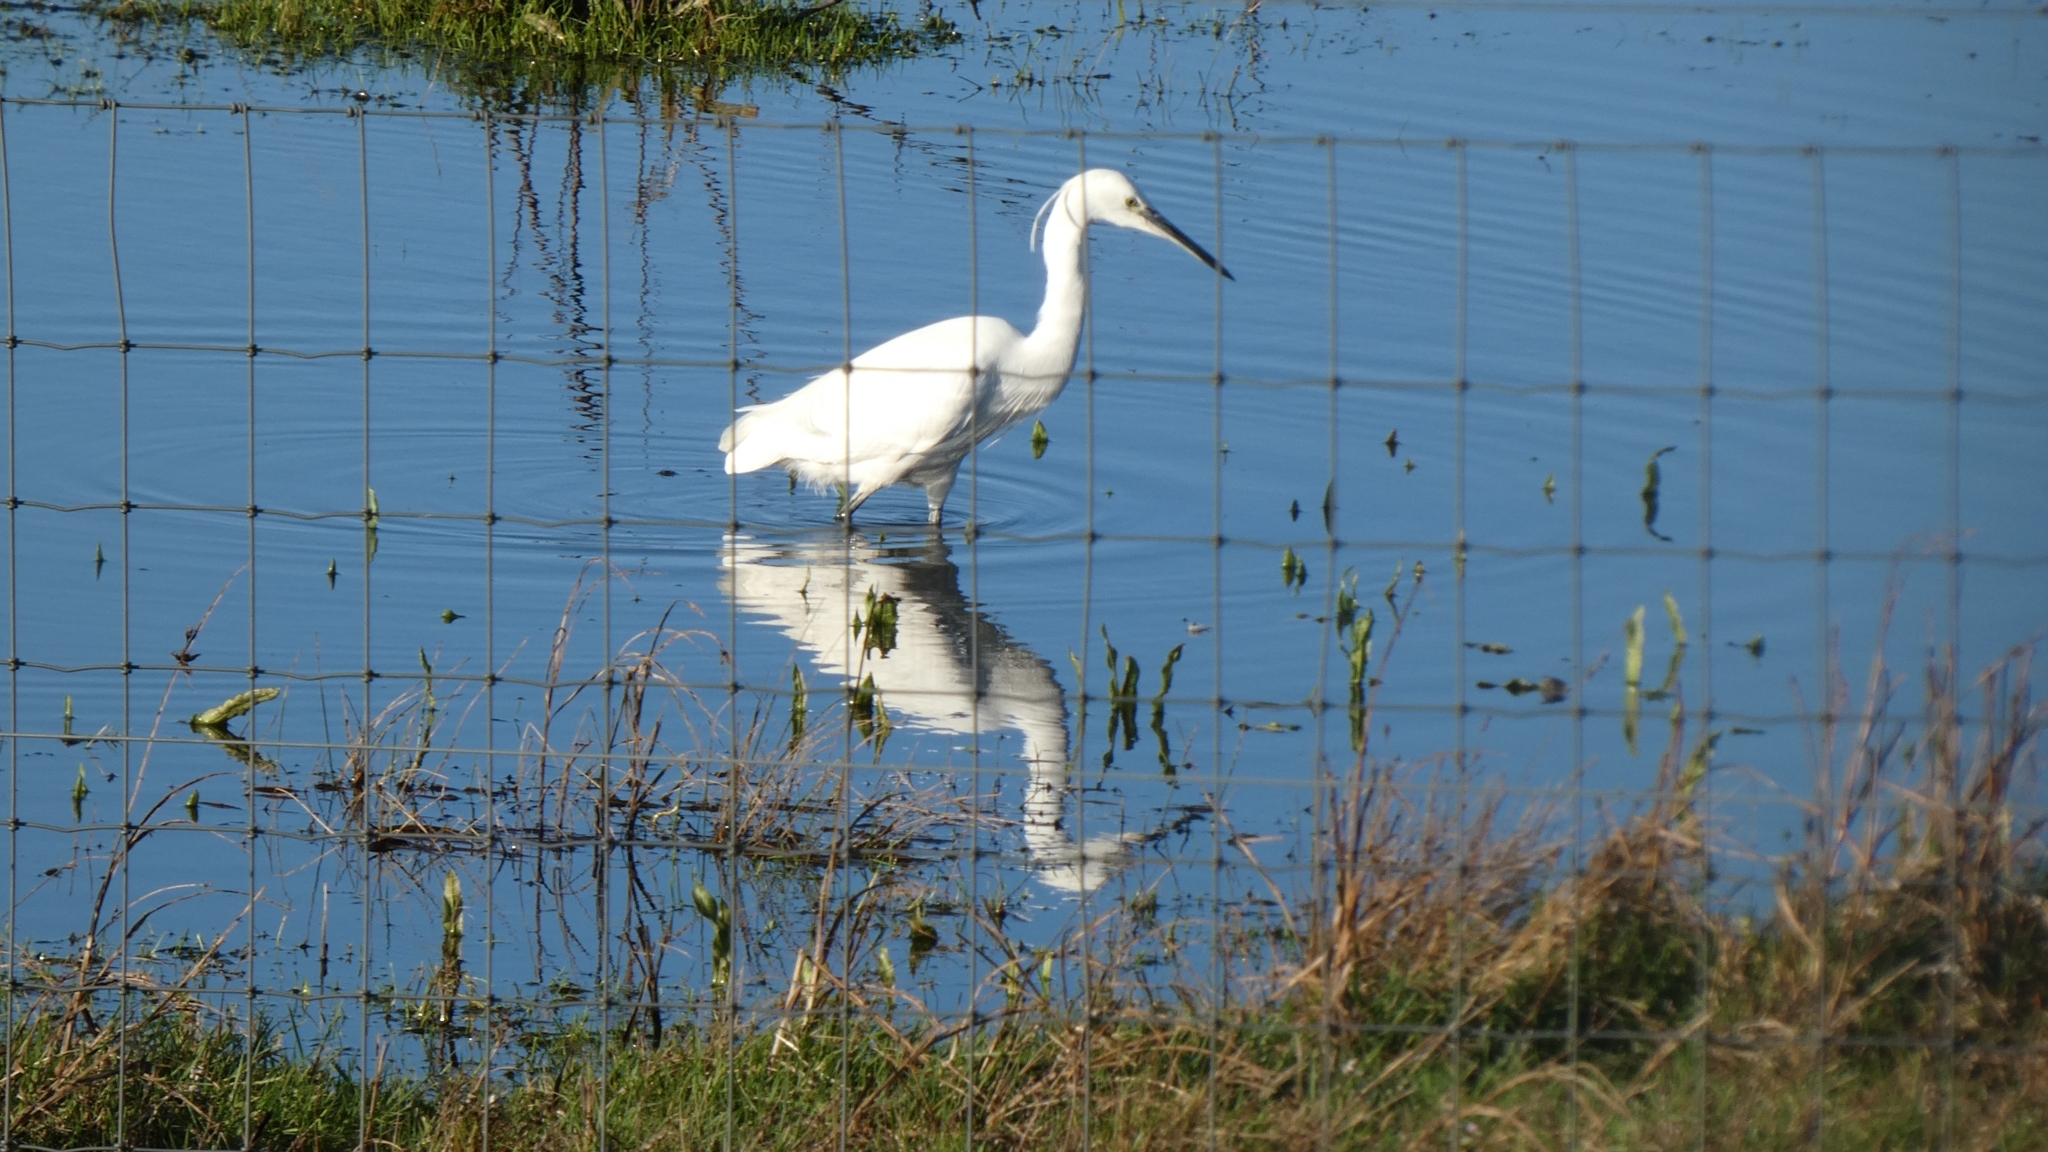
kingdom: Animalia
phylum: Chordata
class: Aves
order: Pelecaniformes
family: Ardeidae
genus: Egretta
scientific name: Egretta garzetta
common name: Little egret
